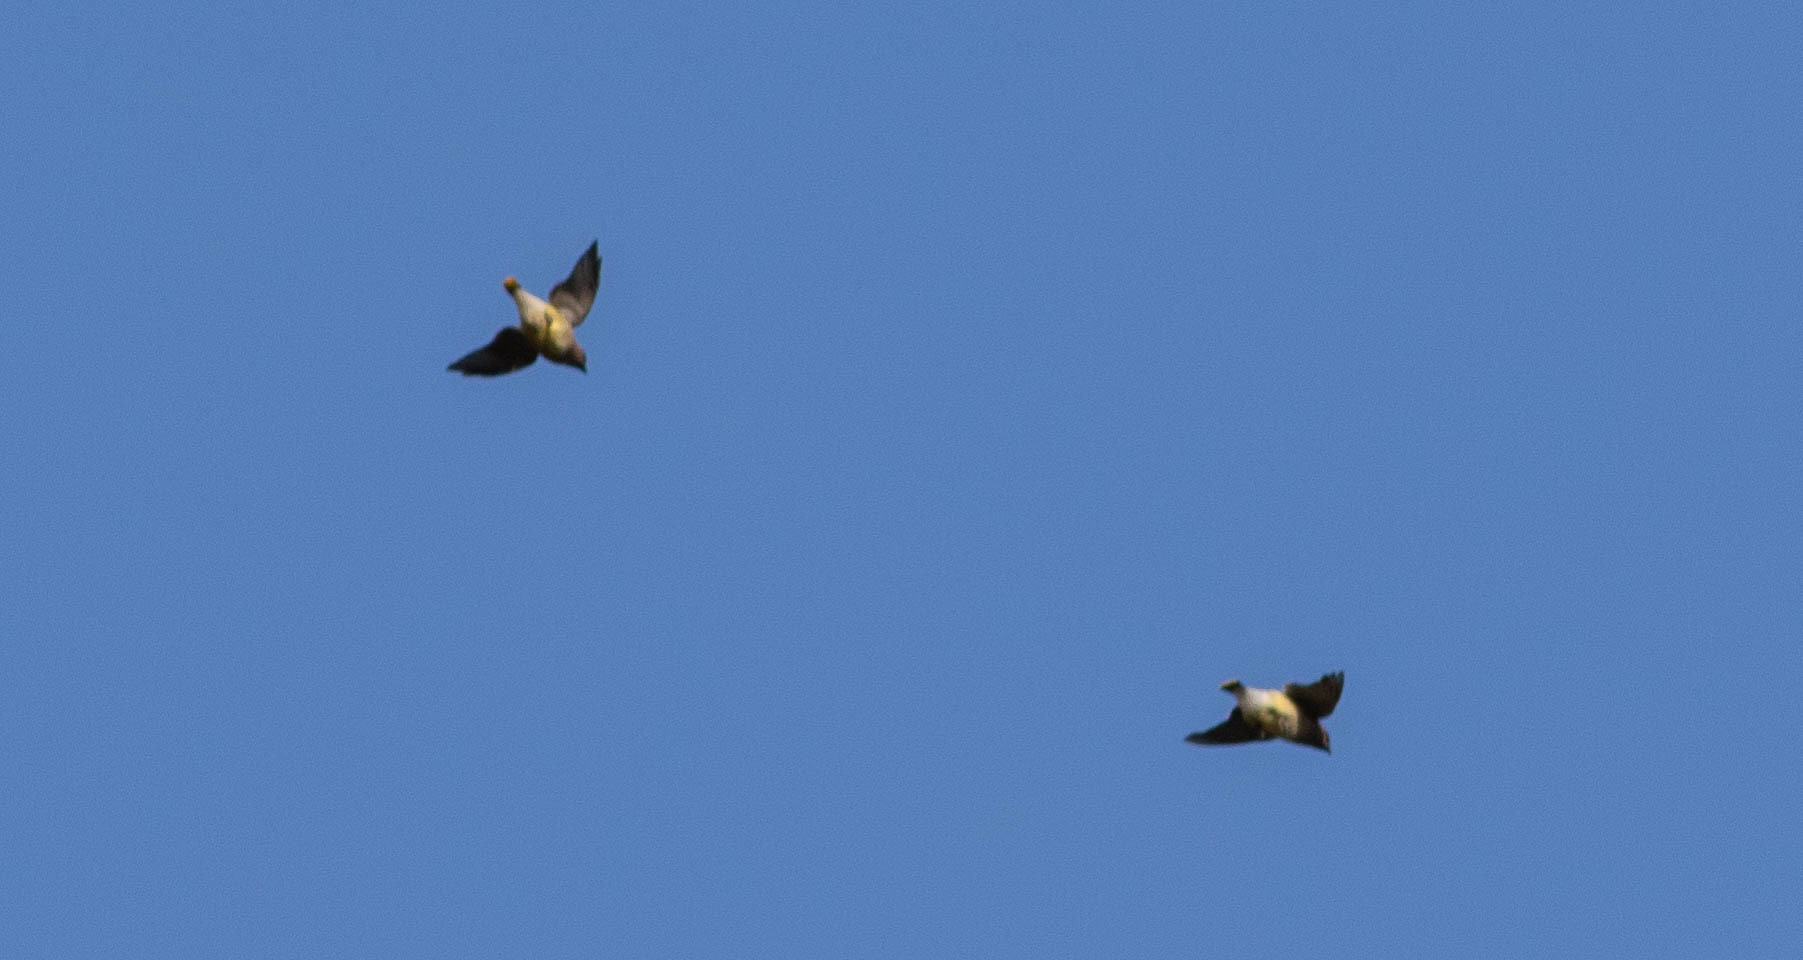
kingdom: Animalia
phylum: Chordata
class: Aves
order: Passeriformes
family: Bombycillidae
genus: Bombycilla
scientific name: Bombycilla cedrorum
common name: Cedar waxwing
